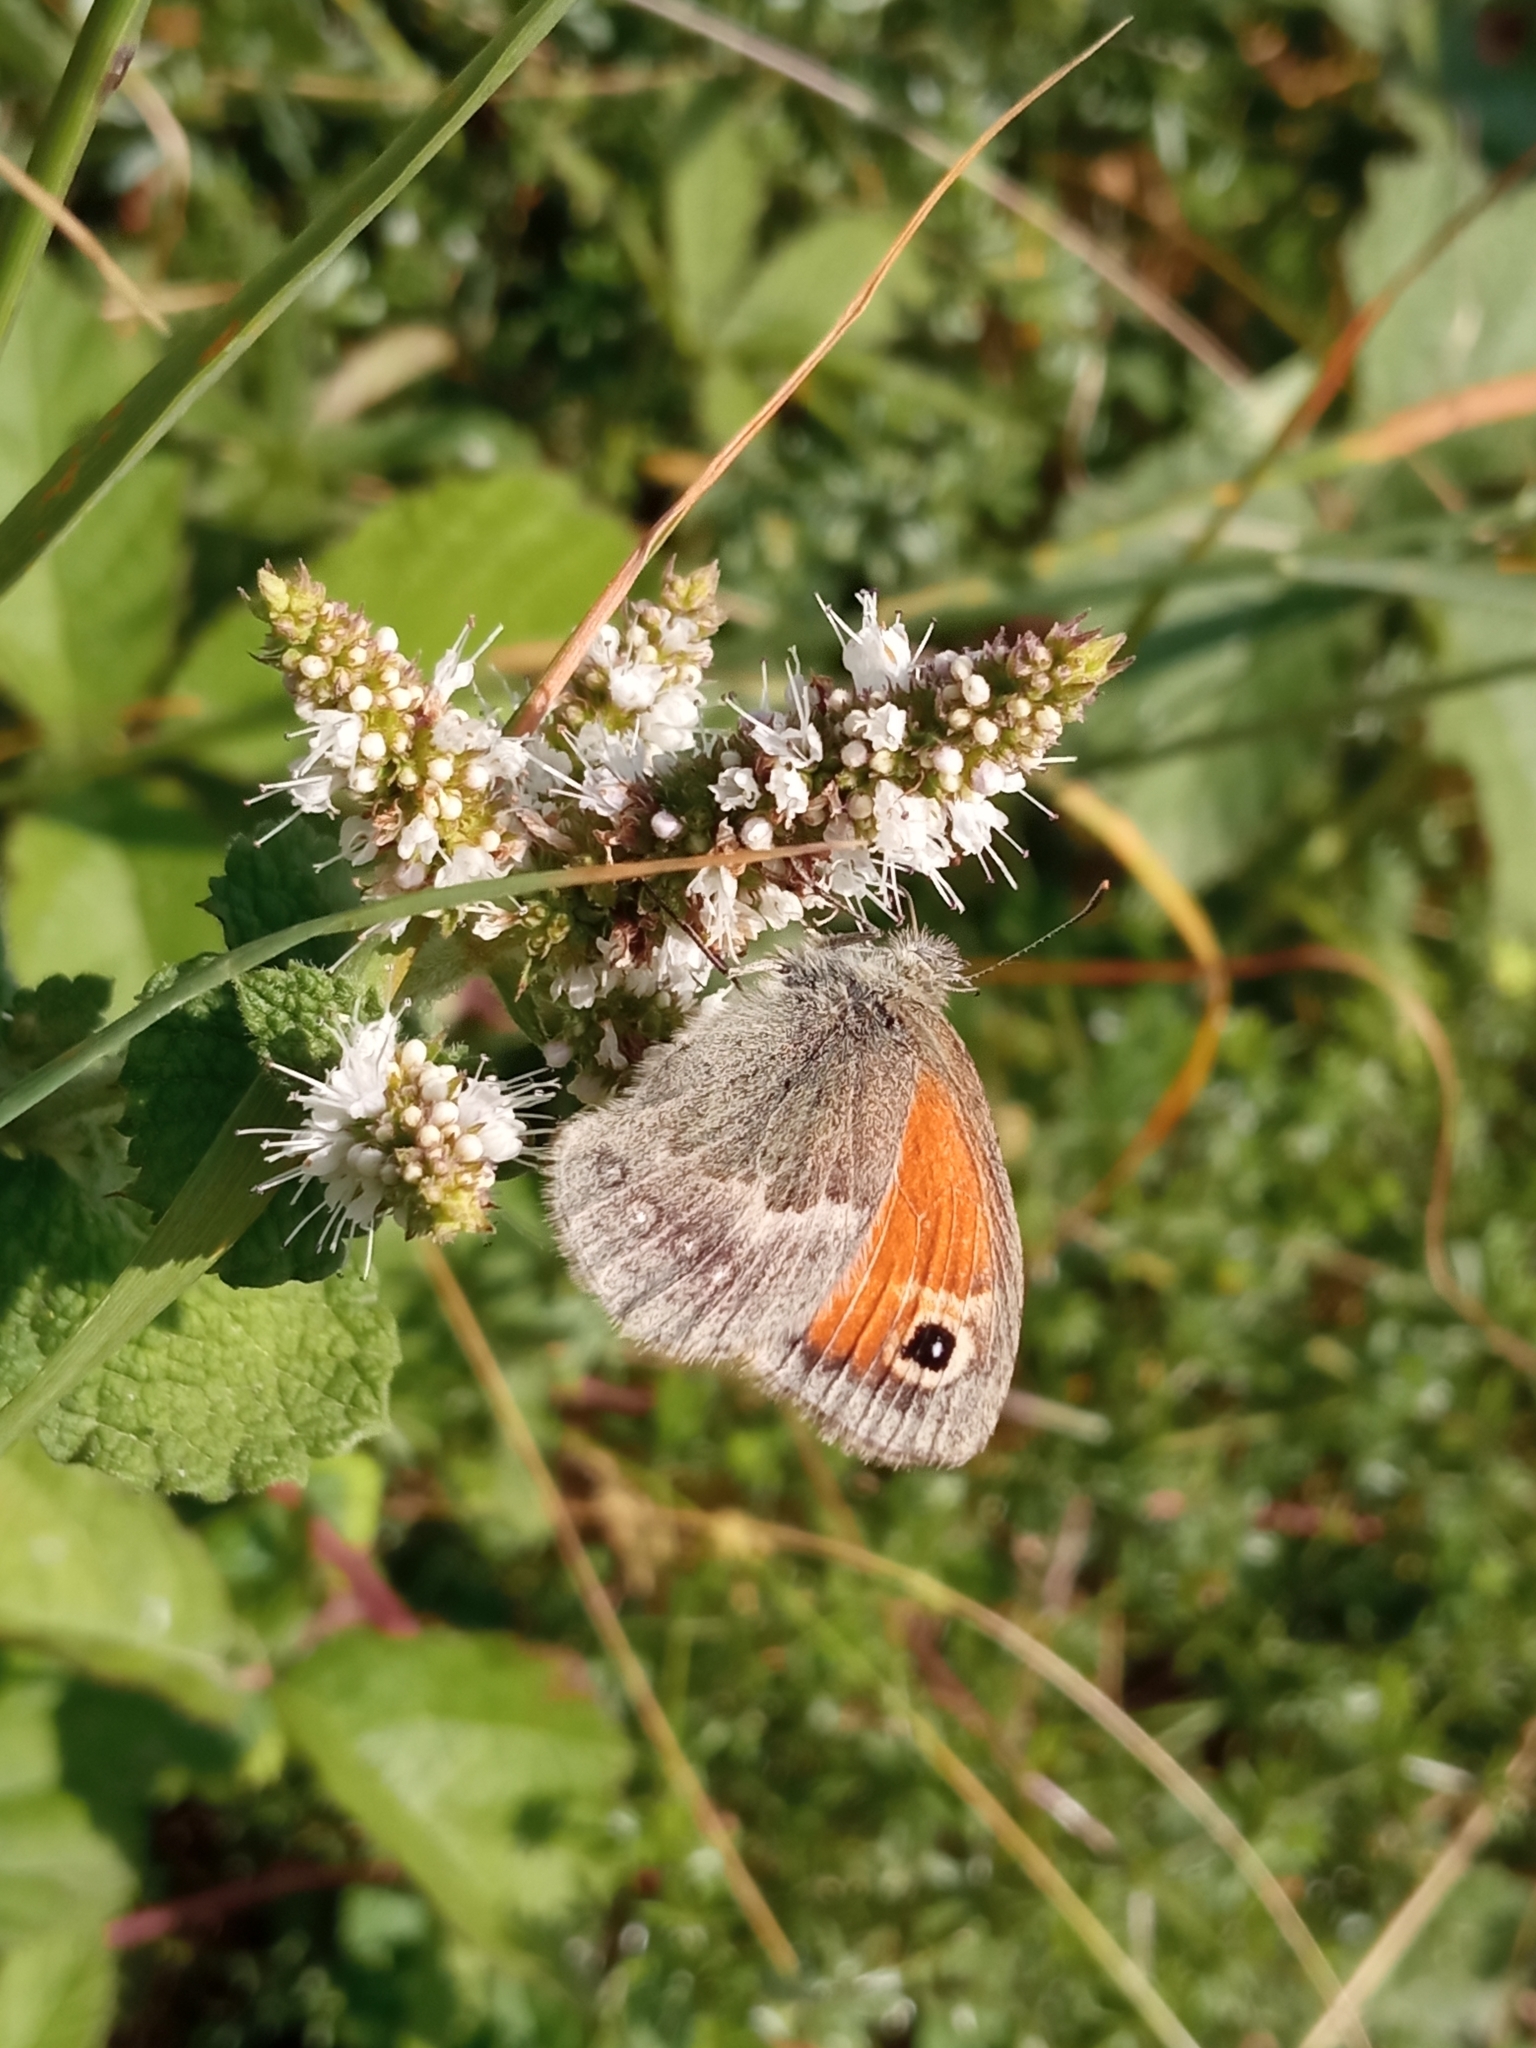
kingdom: Animalia
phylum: Arthropoda
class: Insecta
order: Lepidoptera
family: Nymphalidae
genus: Coenonympha
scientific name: Coenonympha pamphilus
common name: Small heath
